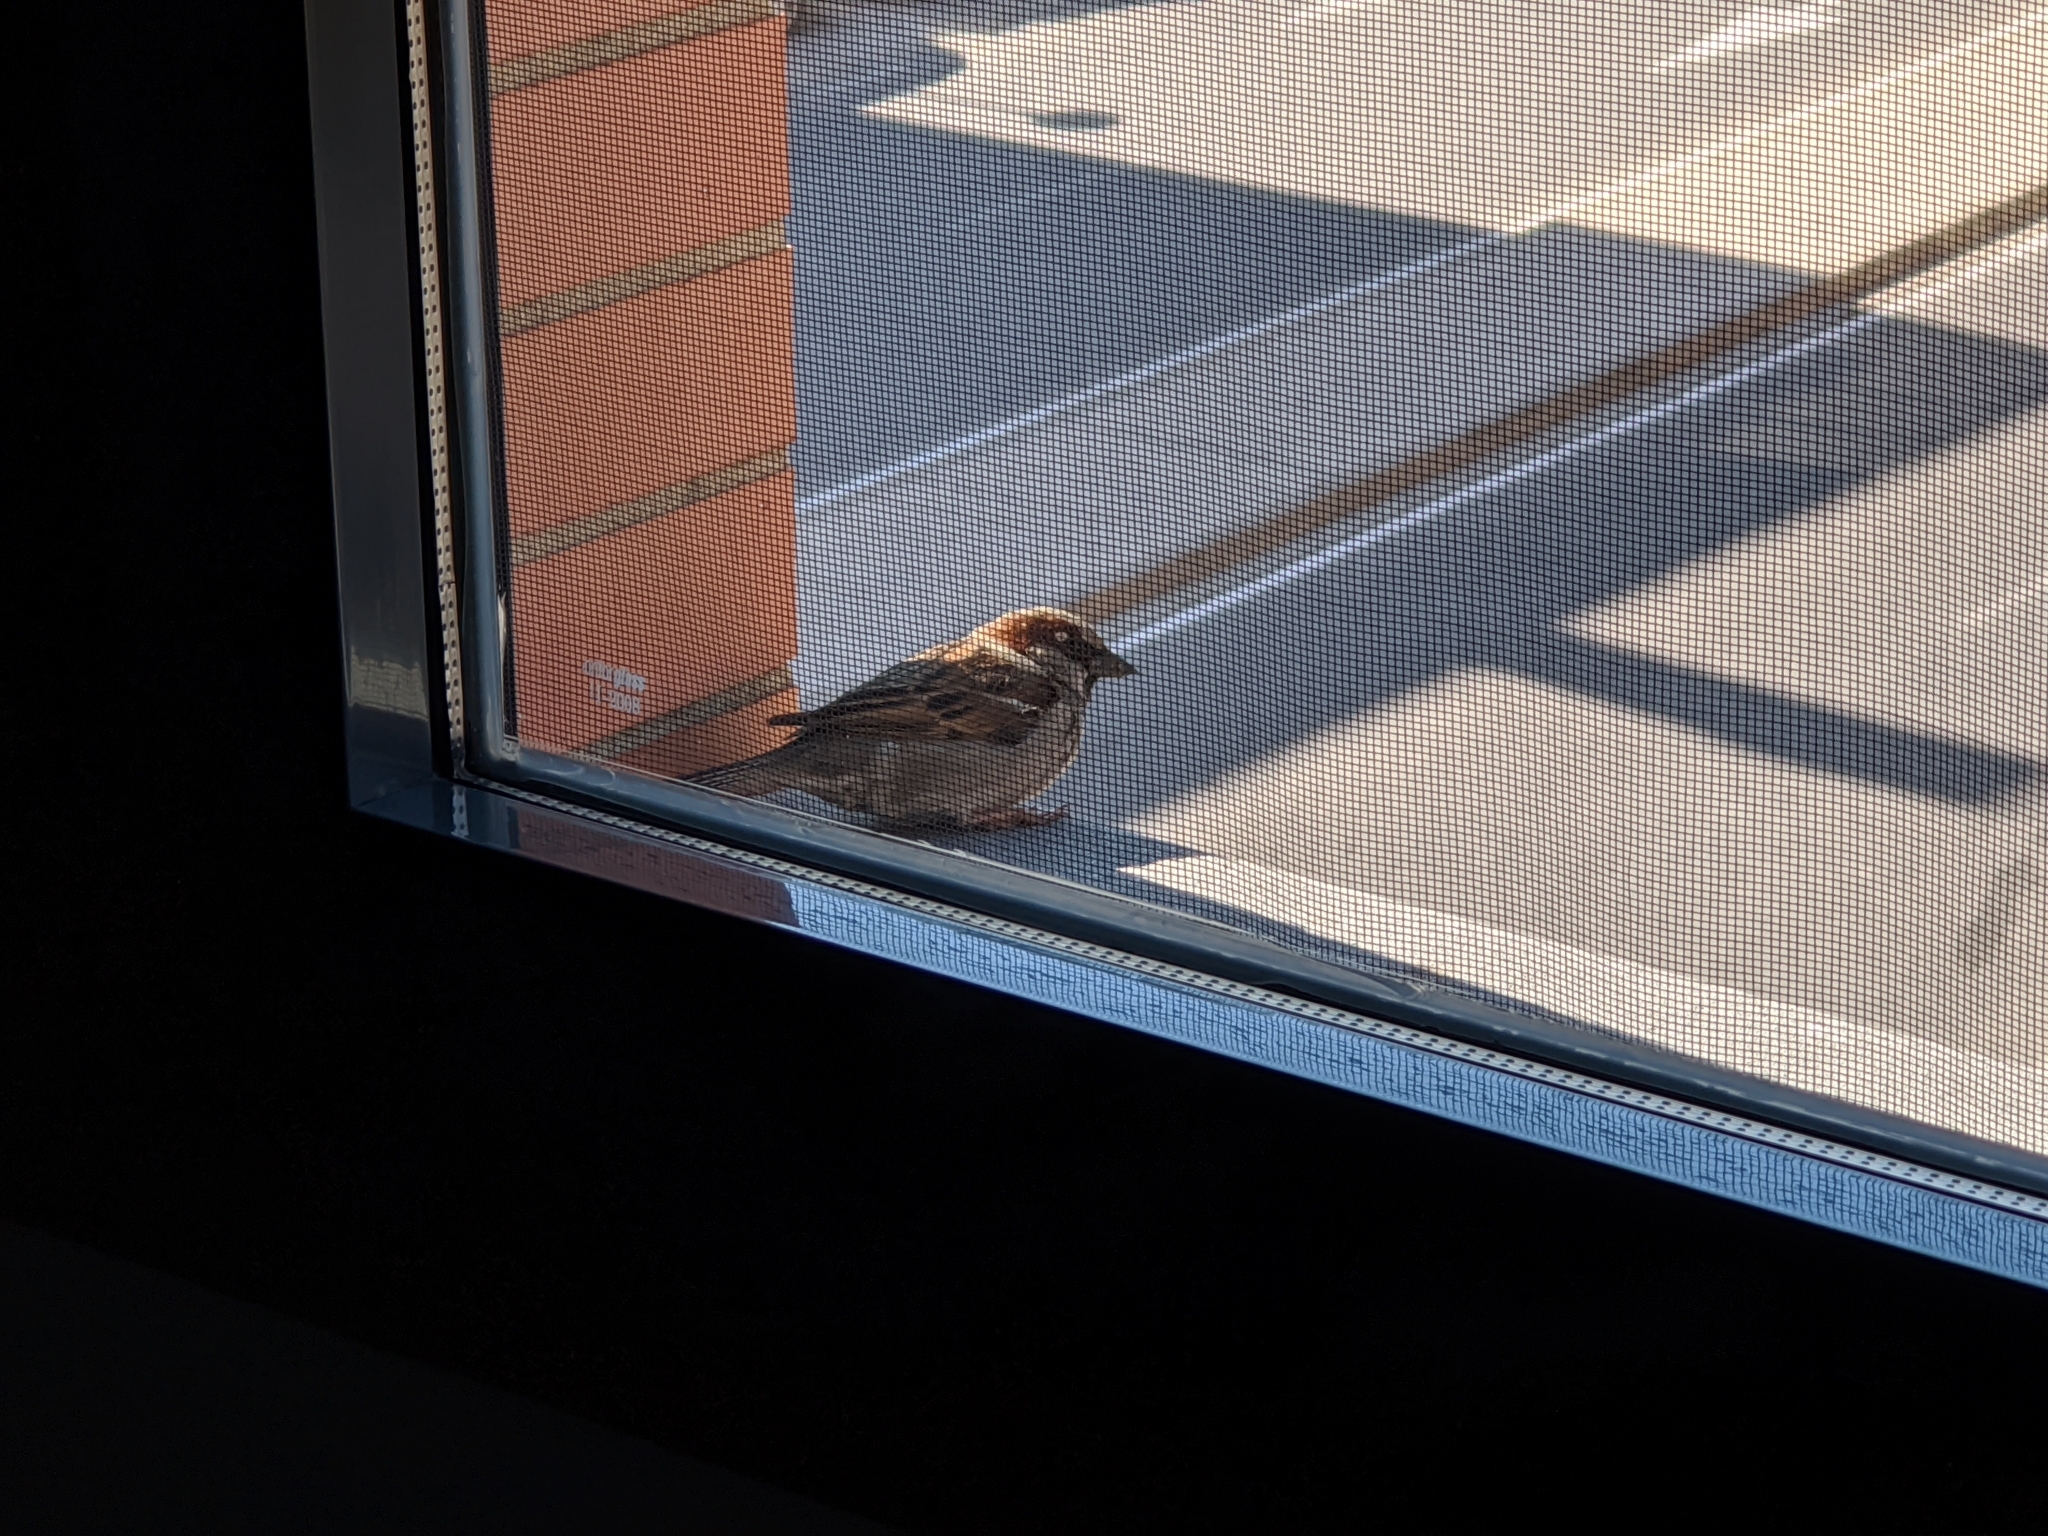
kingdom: Animalia
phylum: Chordata
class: Aves
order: Passeriformes
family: Passeridae
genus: Passer
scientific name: Passer domesticus
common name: House sparrow
